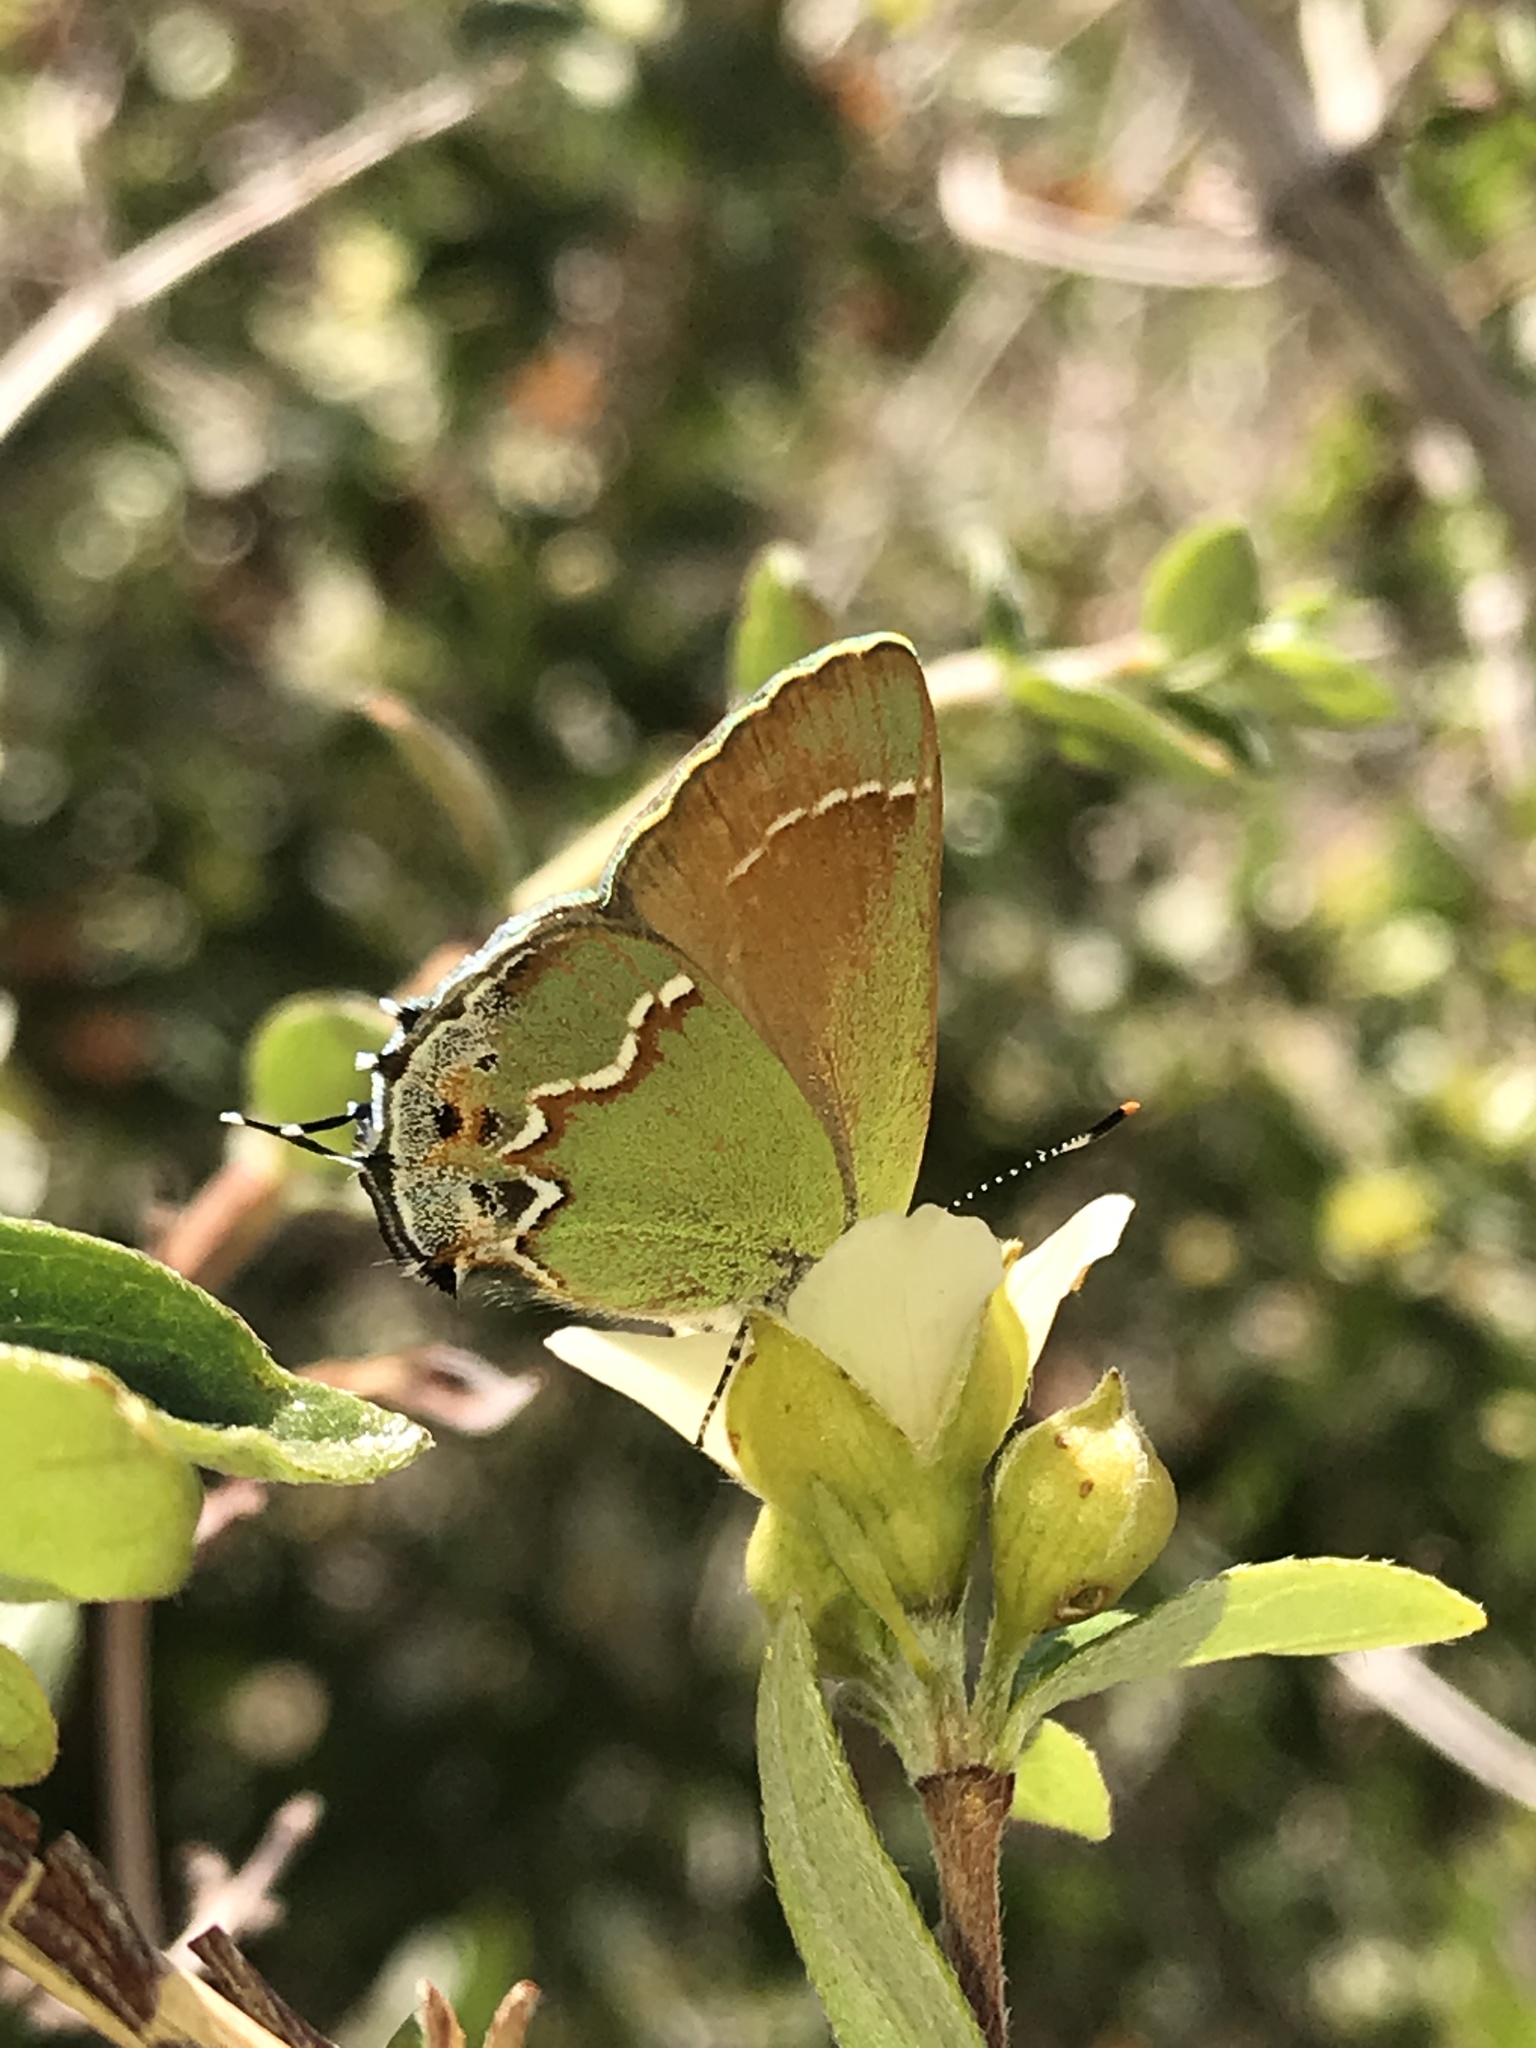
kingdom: Animalia
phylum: Arthropoda
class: Insecta
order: Lepidoptera
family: Lycaenidae
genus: Mitoura
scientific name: Mitoura siva
